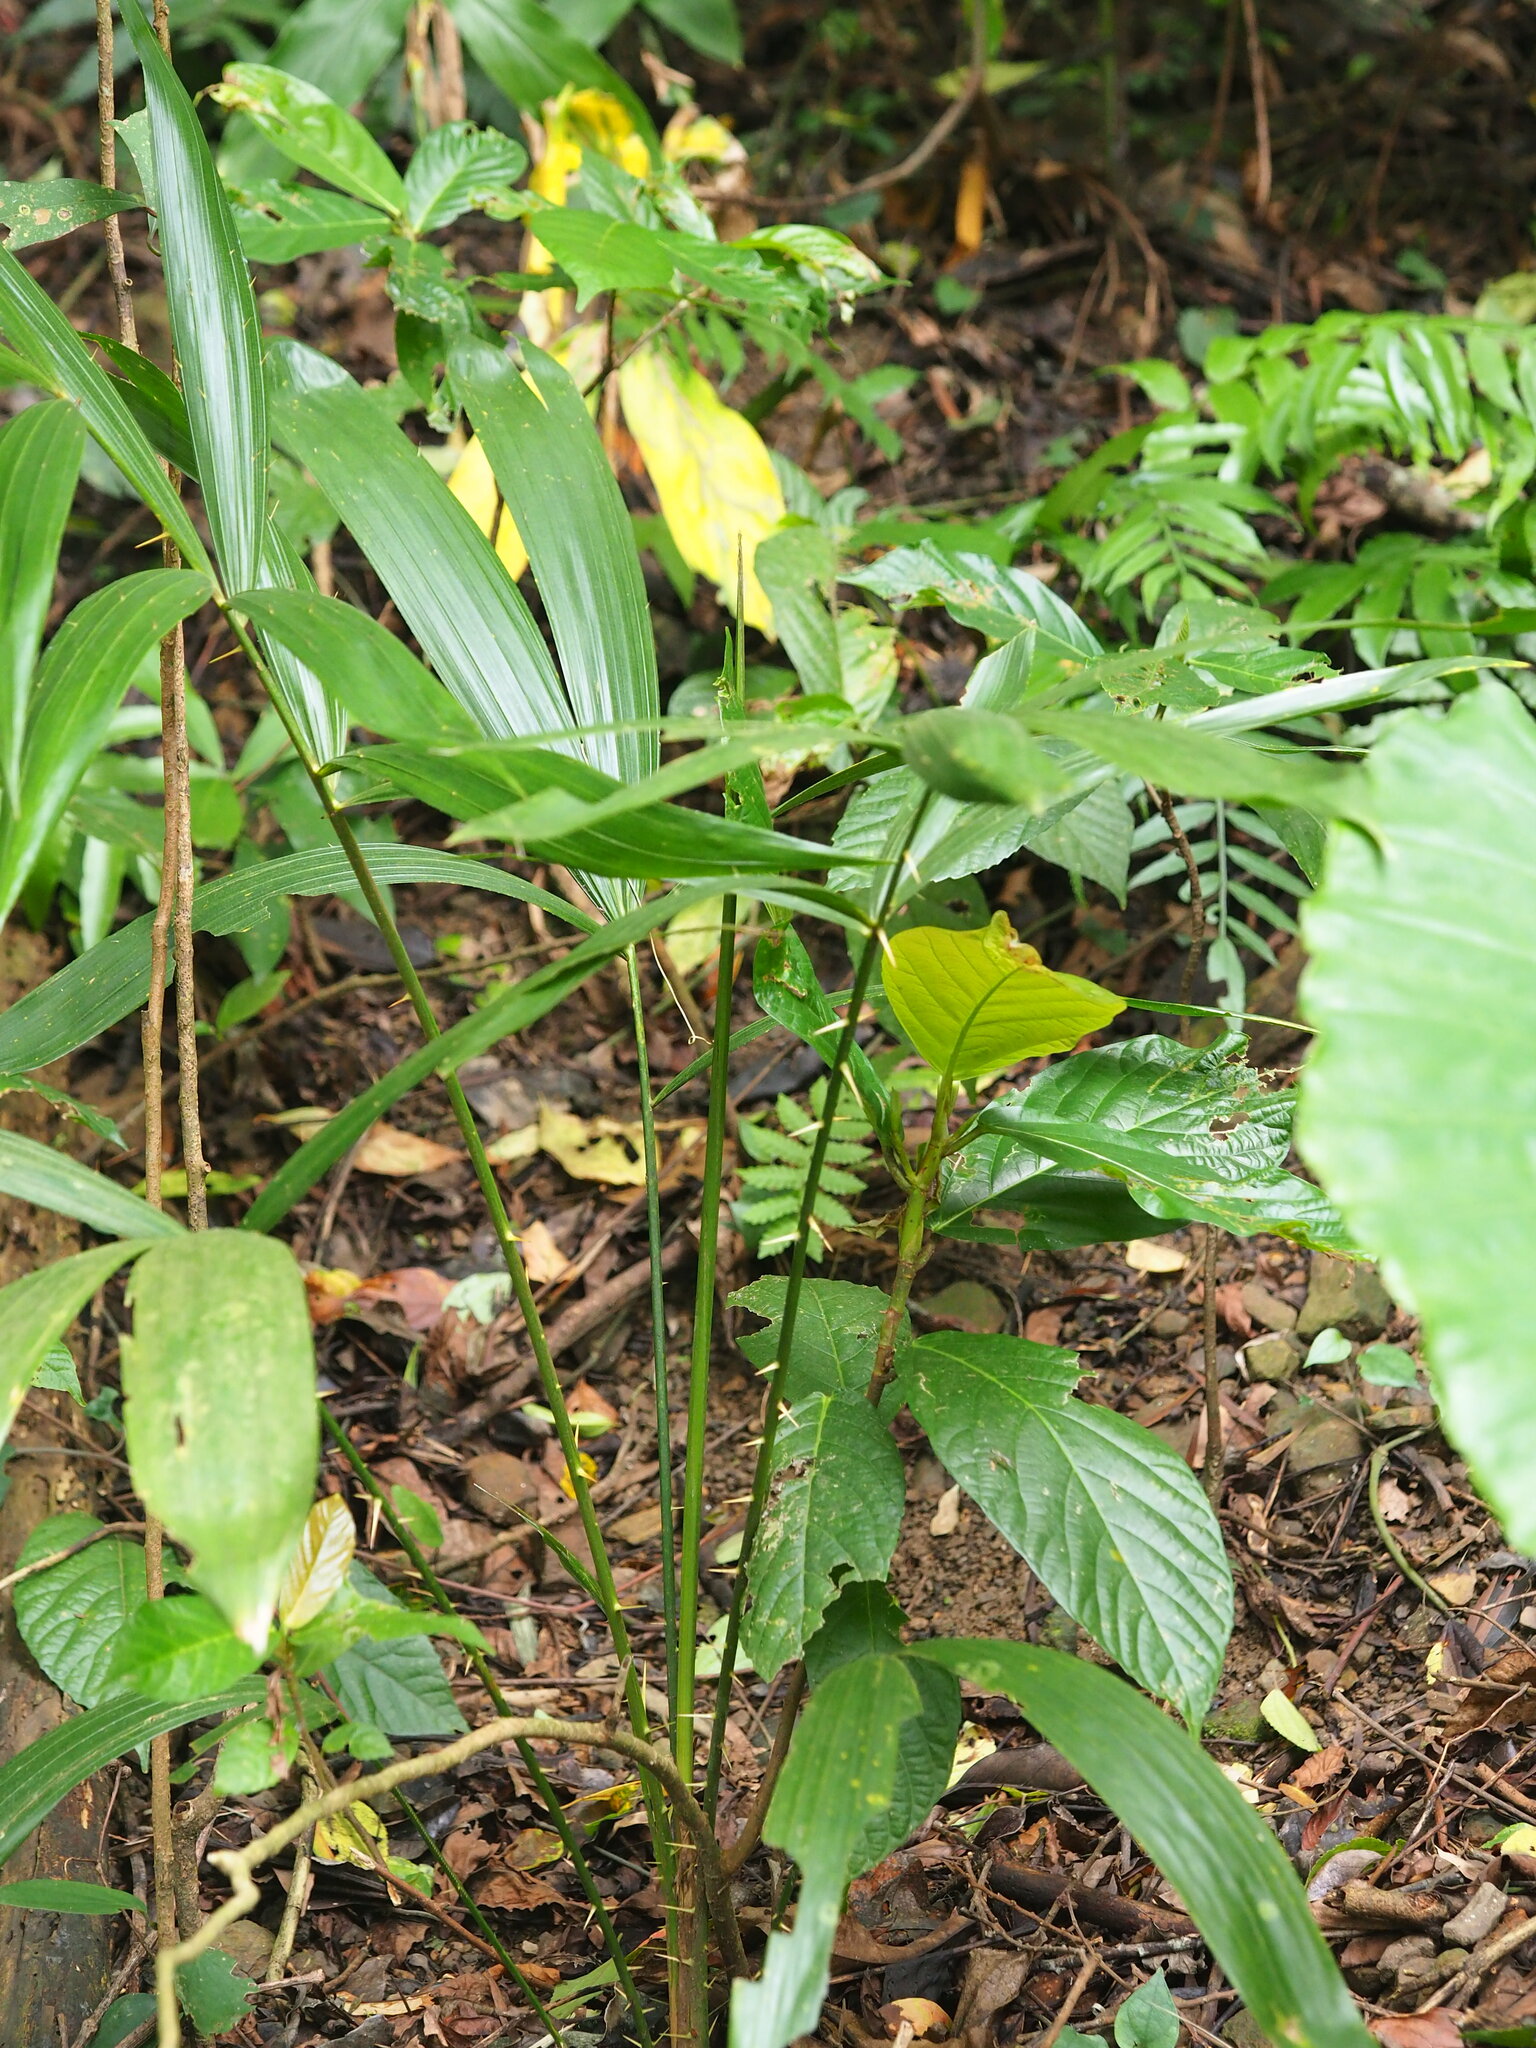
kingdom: Plantae
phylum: Tracheophyta
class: Liliopsida
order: Arecales
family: Arecaceae
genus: Calamus
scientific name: Calamus formosanus
